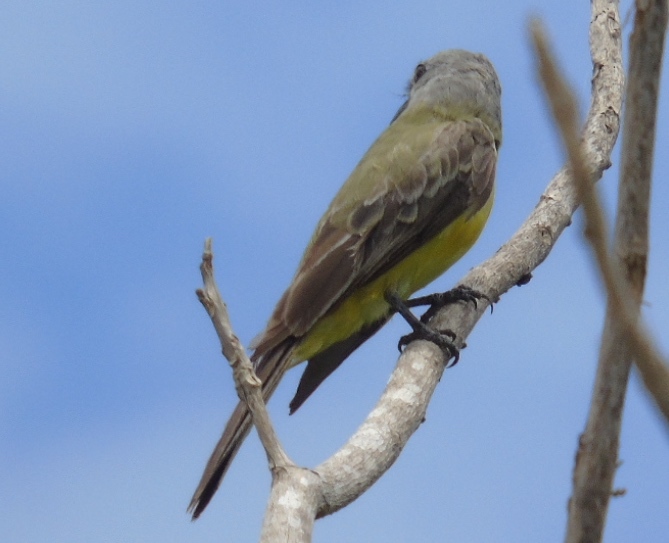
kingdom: Animalia
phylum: Chordata
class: Aves
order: Passeriformes
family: Tyrannidae
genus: Tyrannus
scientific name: Tyrannus melancholicus
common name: Tropical kingbird
